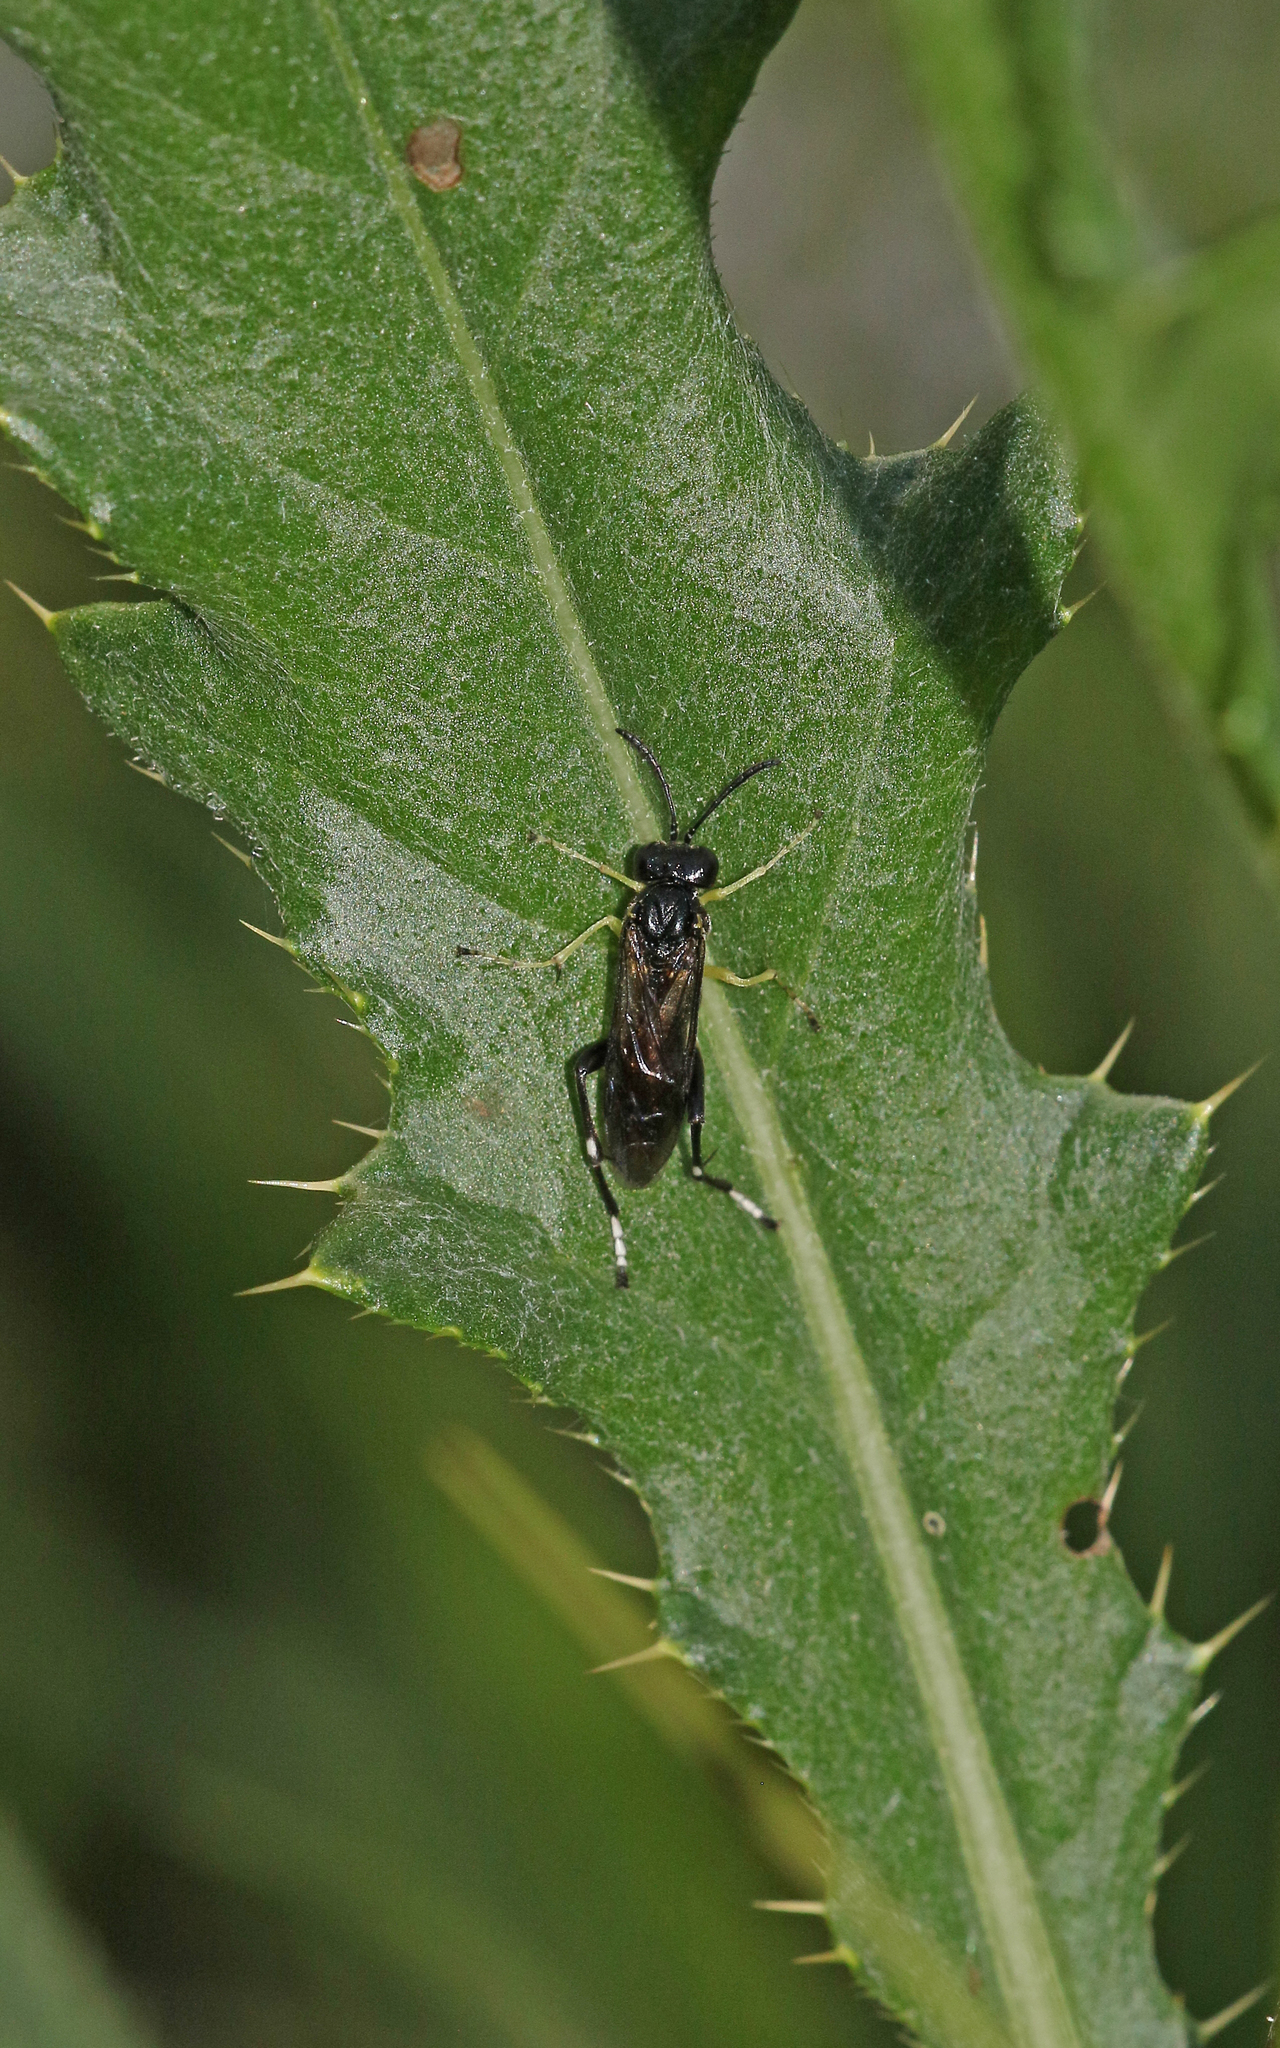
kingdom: Animalia
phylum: Arthropoda
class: Insecta
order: Hymenoptera
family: Tenthredinidae
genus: Macrophya
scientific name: Macrophya montana
